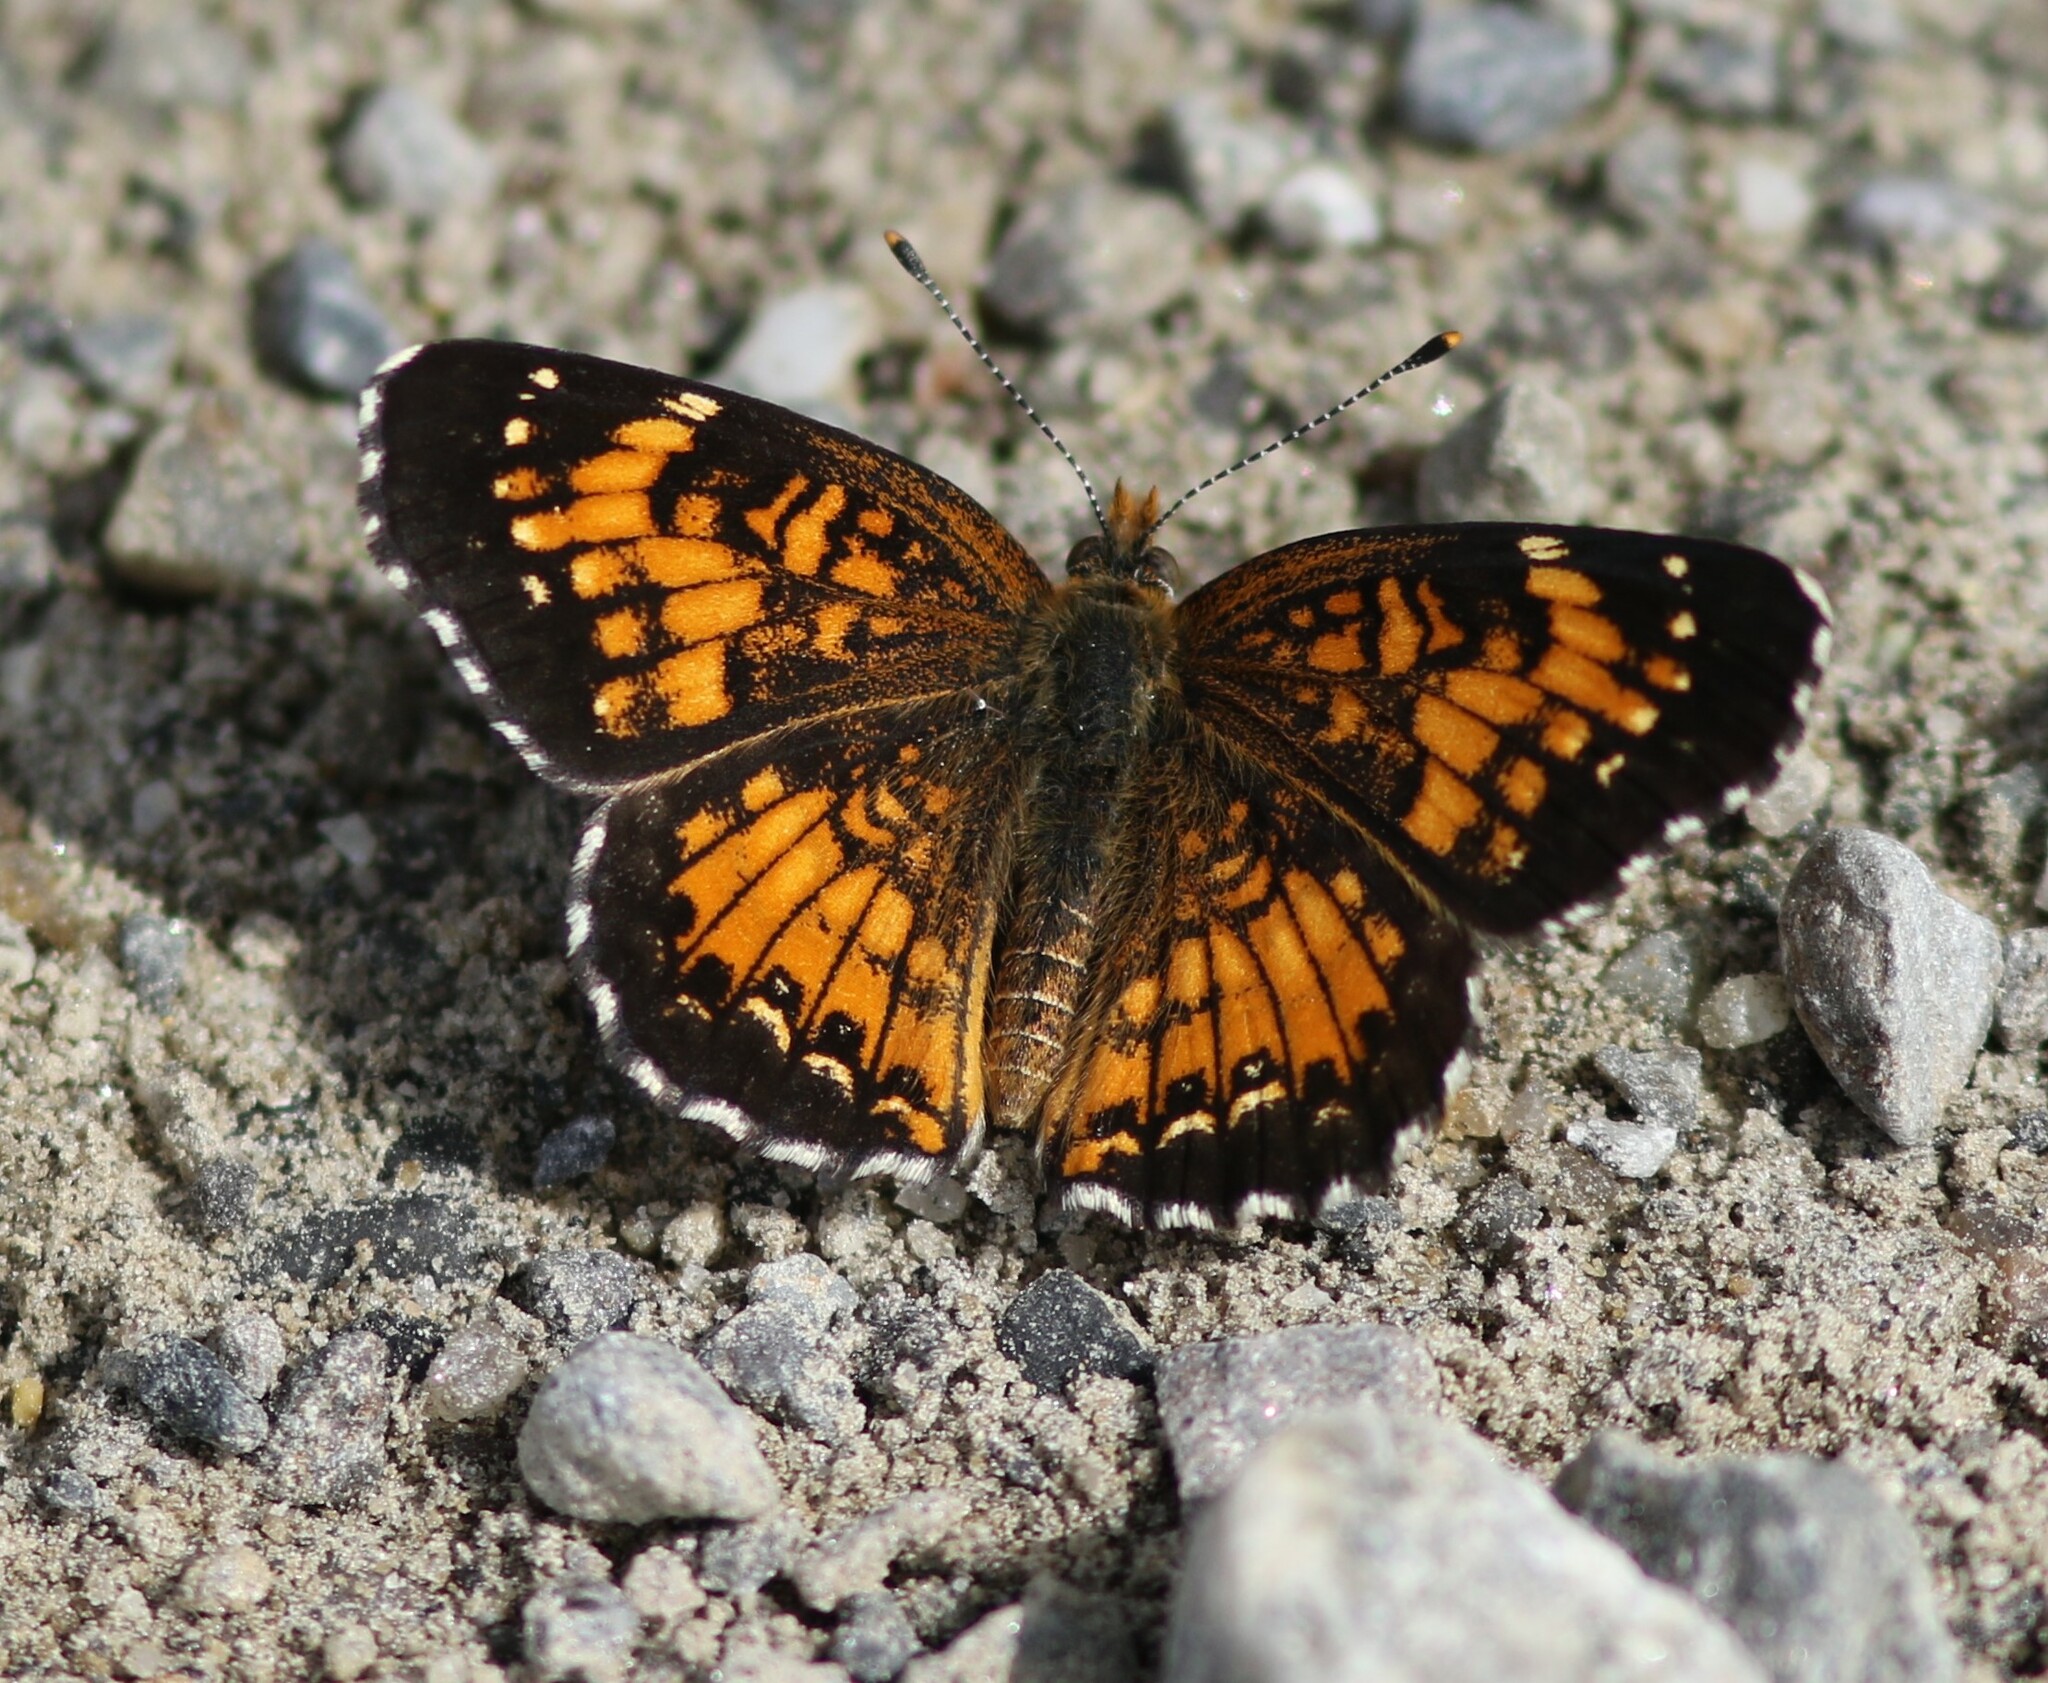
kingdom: Animalia
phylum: Arthropoda
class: Insecta
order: Lepidoptera
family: Nymphalidae
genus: Chlosyne
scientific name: Chlosyne harrisii
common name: Harris's checkerspot
